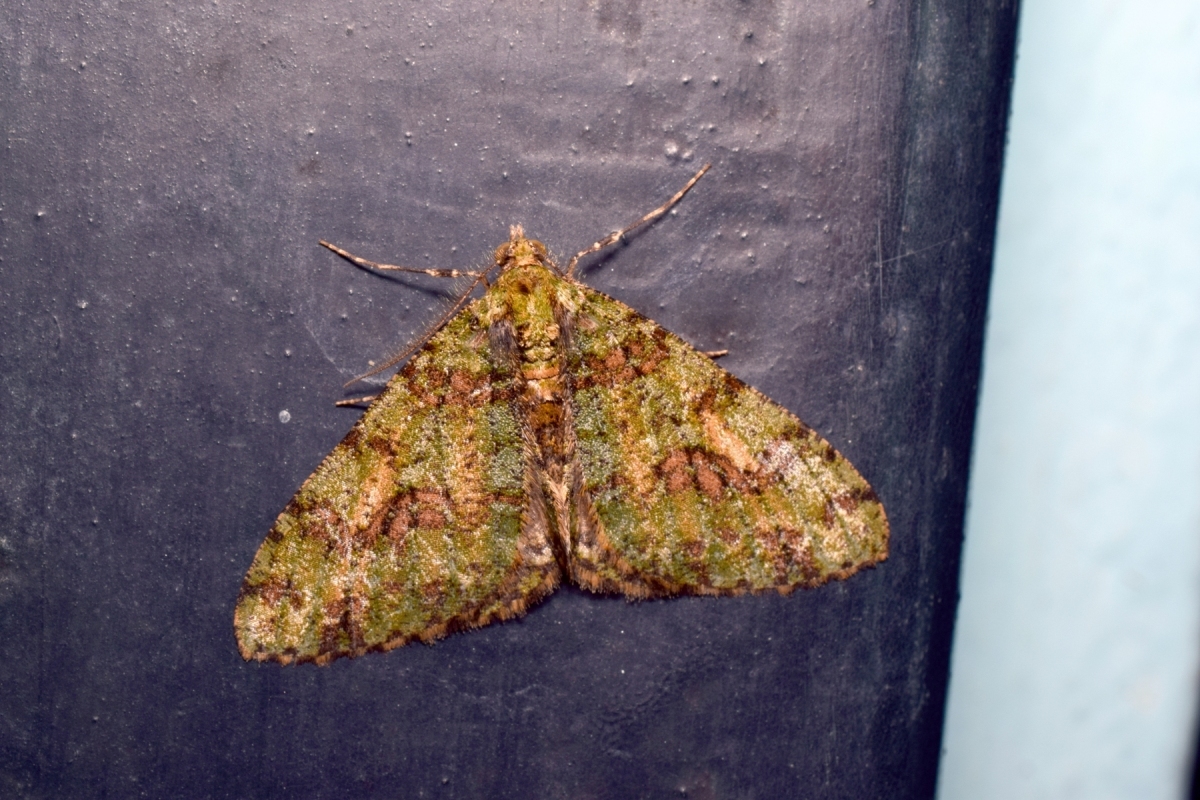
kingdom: Animalia
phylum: Arthropoda
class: Insecta
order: Lepidoptera
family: Geometridae
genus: Myrioblephara
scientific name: Myrioblephara duplexa
